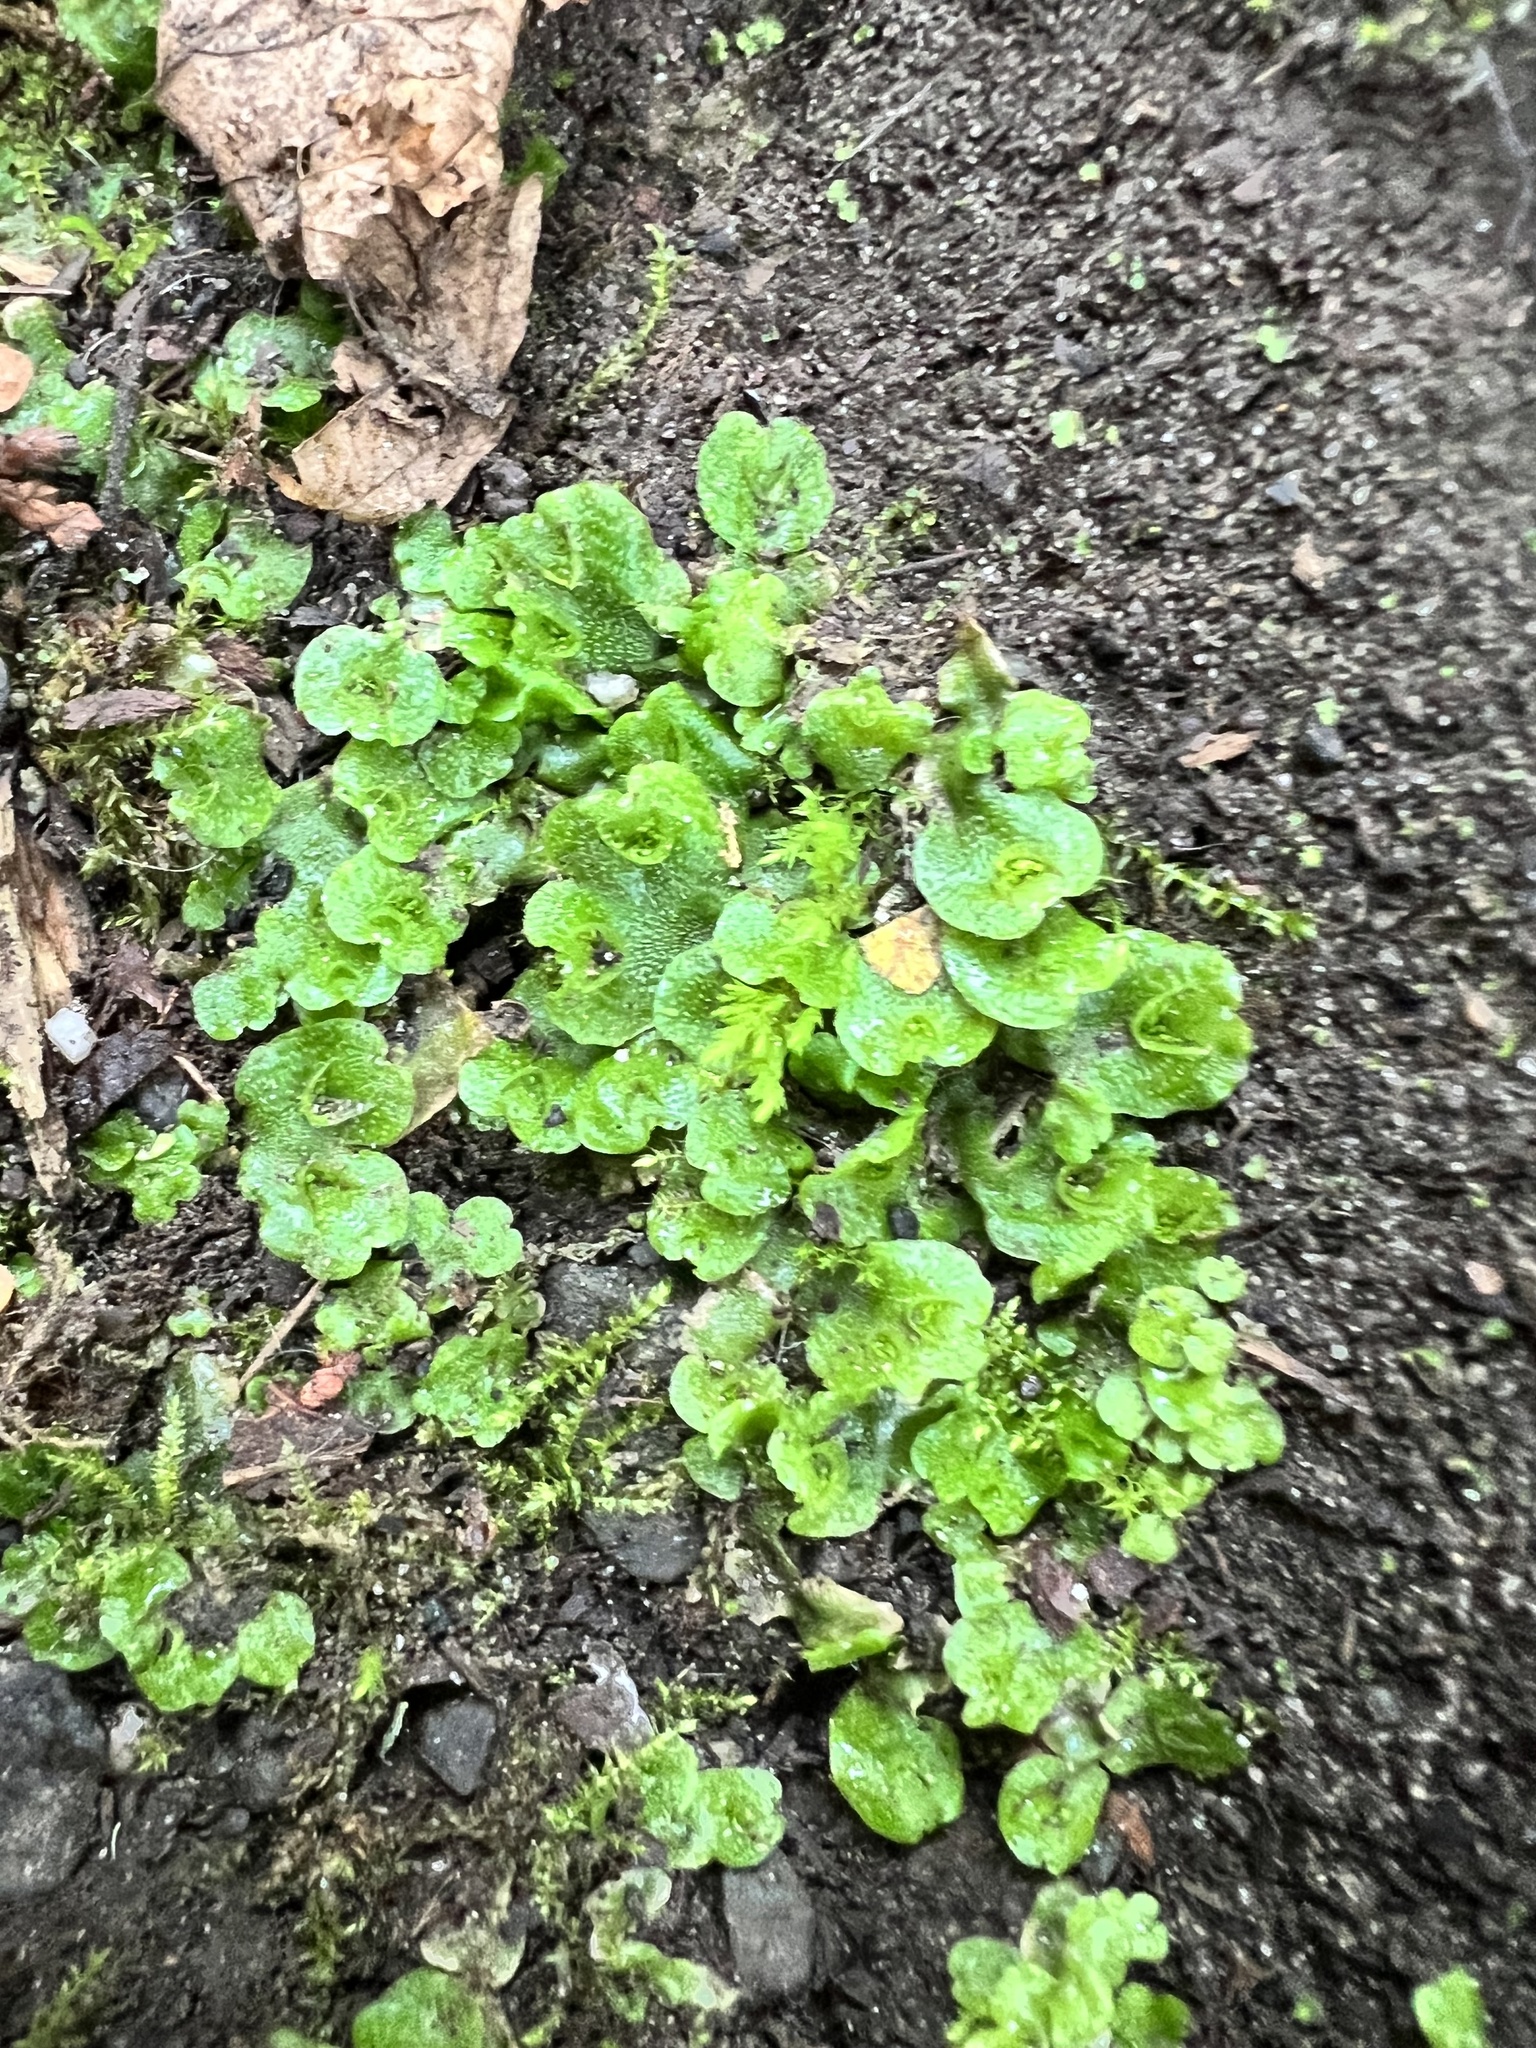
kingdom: Plantae
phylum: Marchantiophyta
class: Marchantiopsida
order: Lunulariales
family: Lunulariaceae
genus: Lunularia
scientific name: Lunularia cruciata
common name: Crescent-cup liverwort
